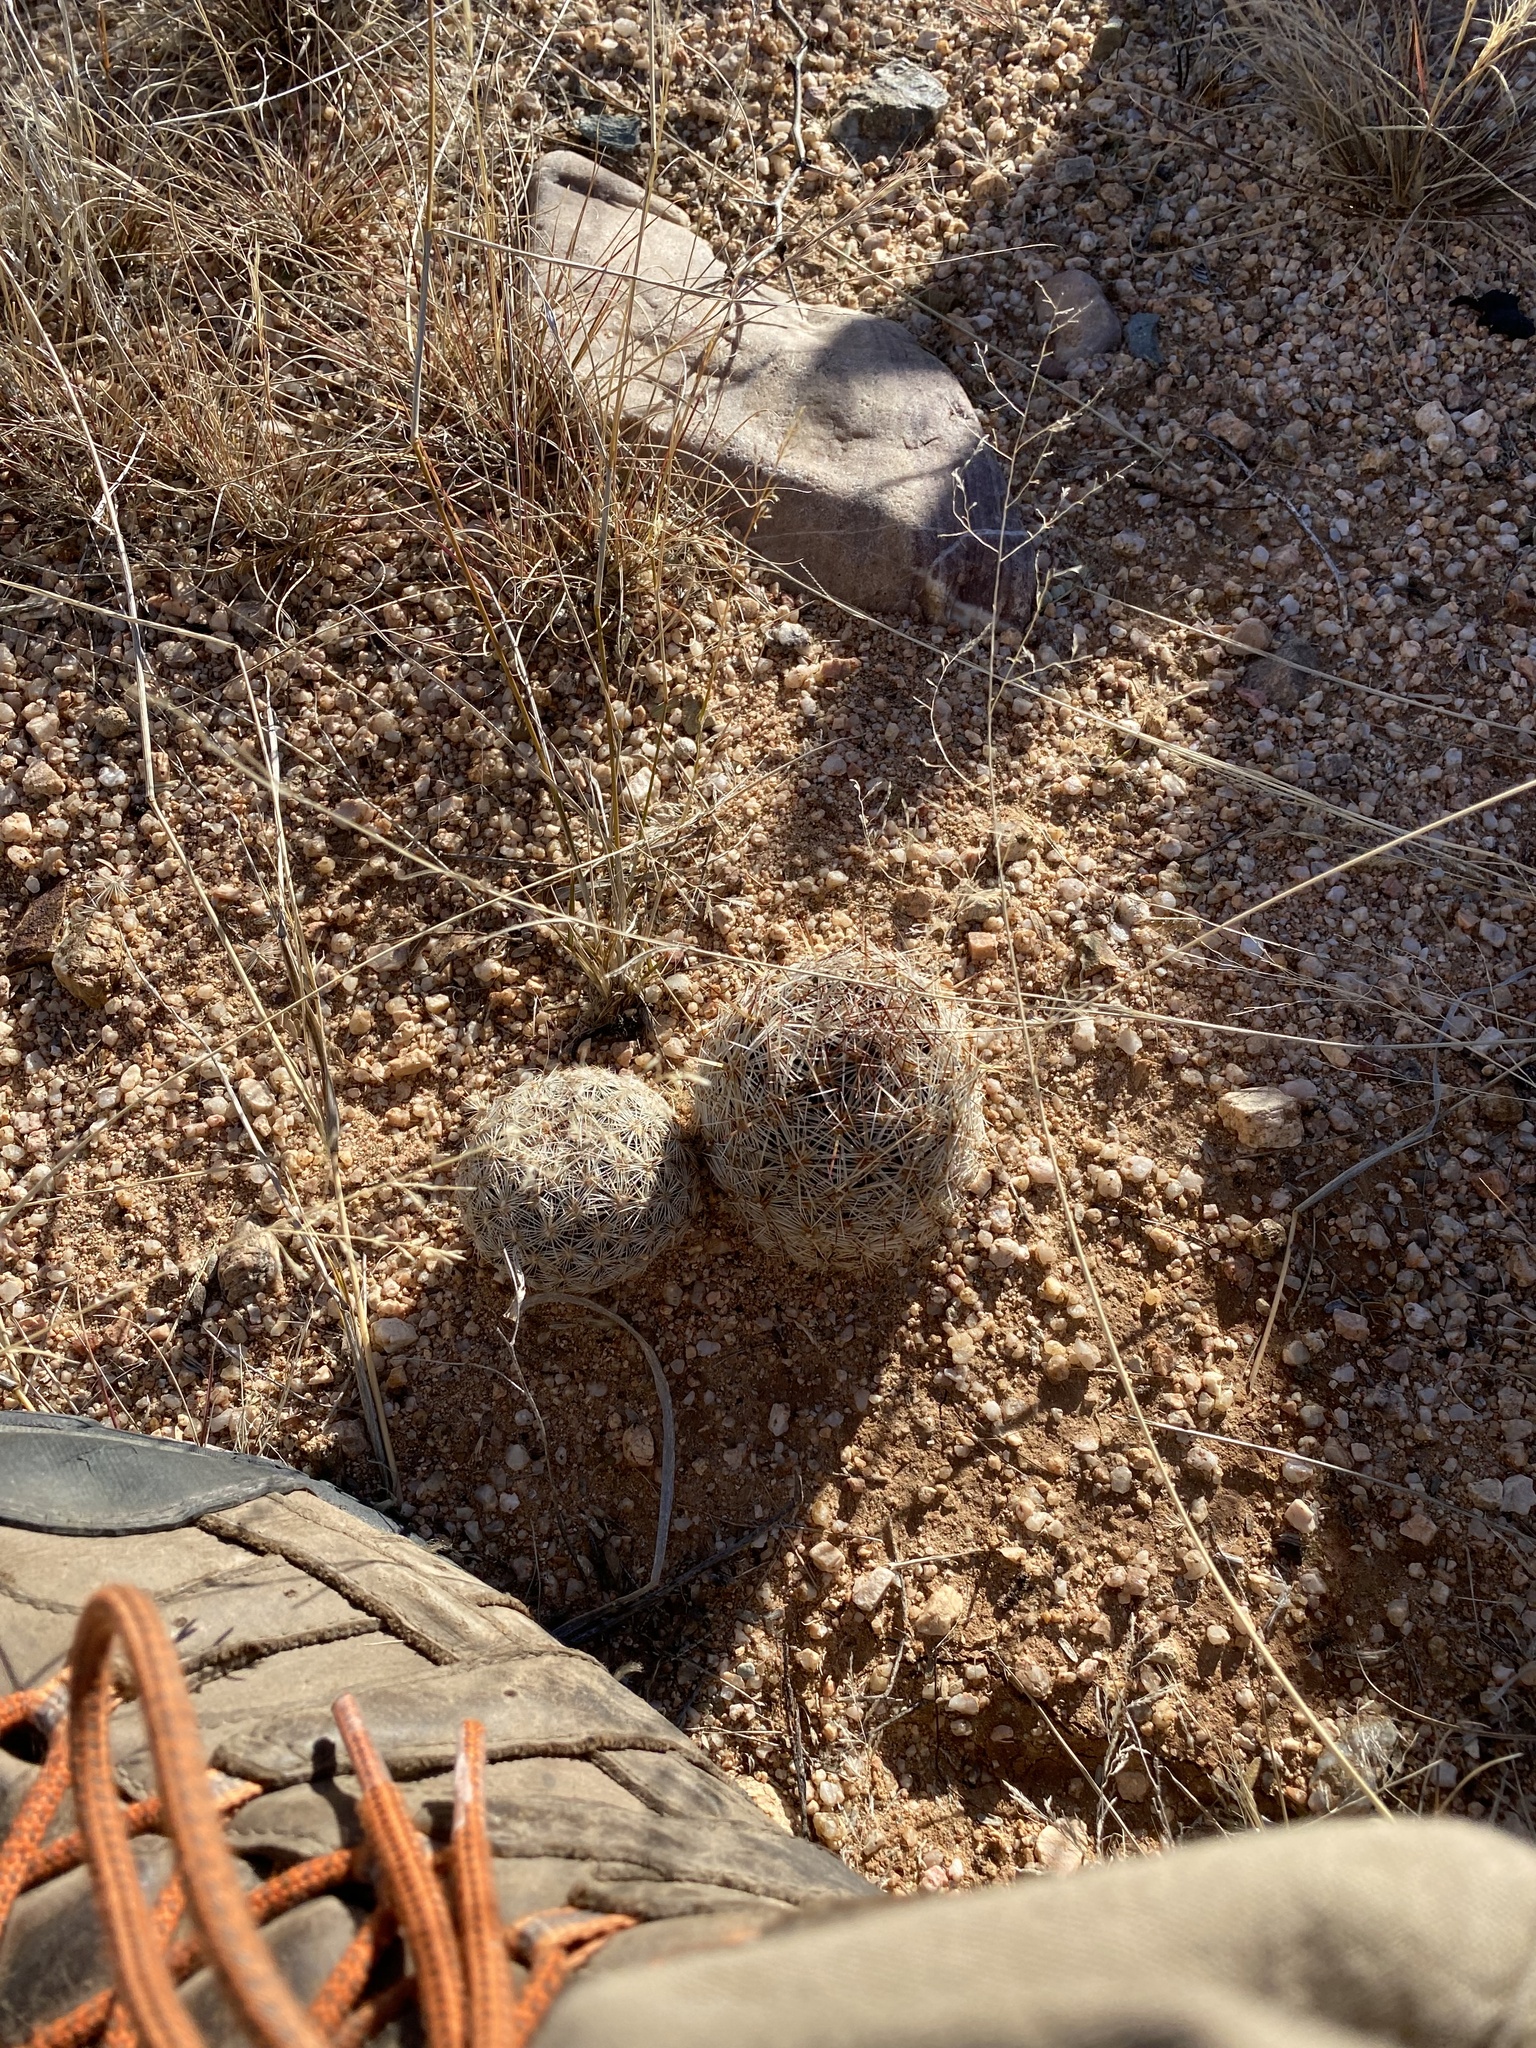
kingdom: Plantae
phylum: Tracheophyta
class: Magnoliopsida
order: Caryophyllales
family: Cactaceae
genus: Pelecyphora
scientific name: Pelecyphora vivipara
